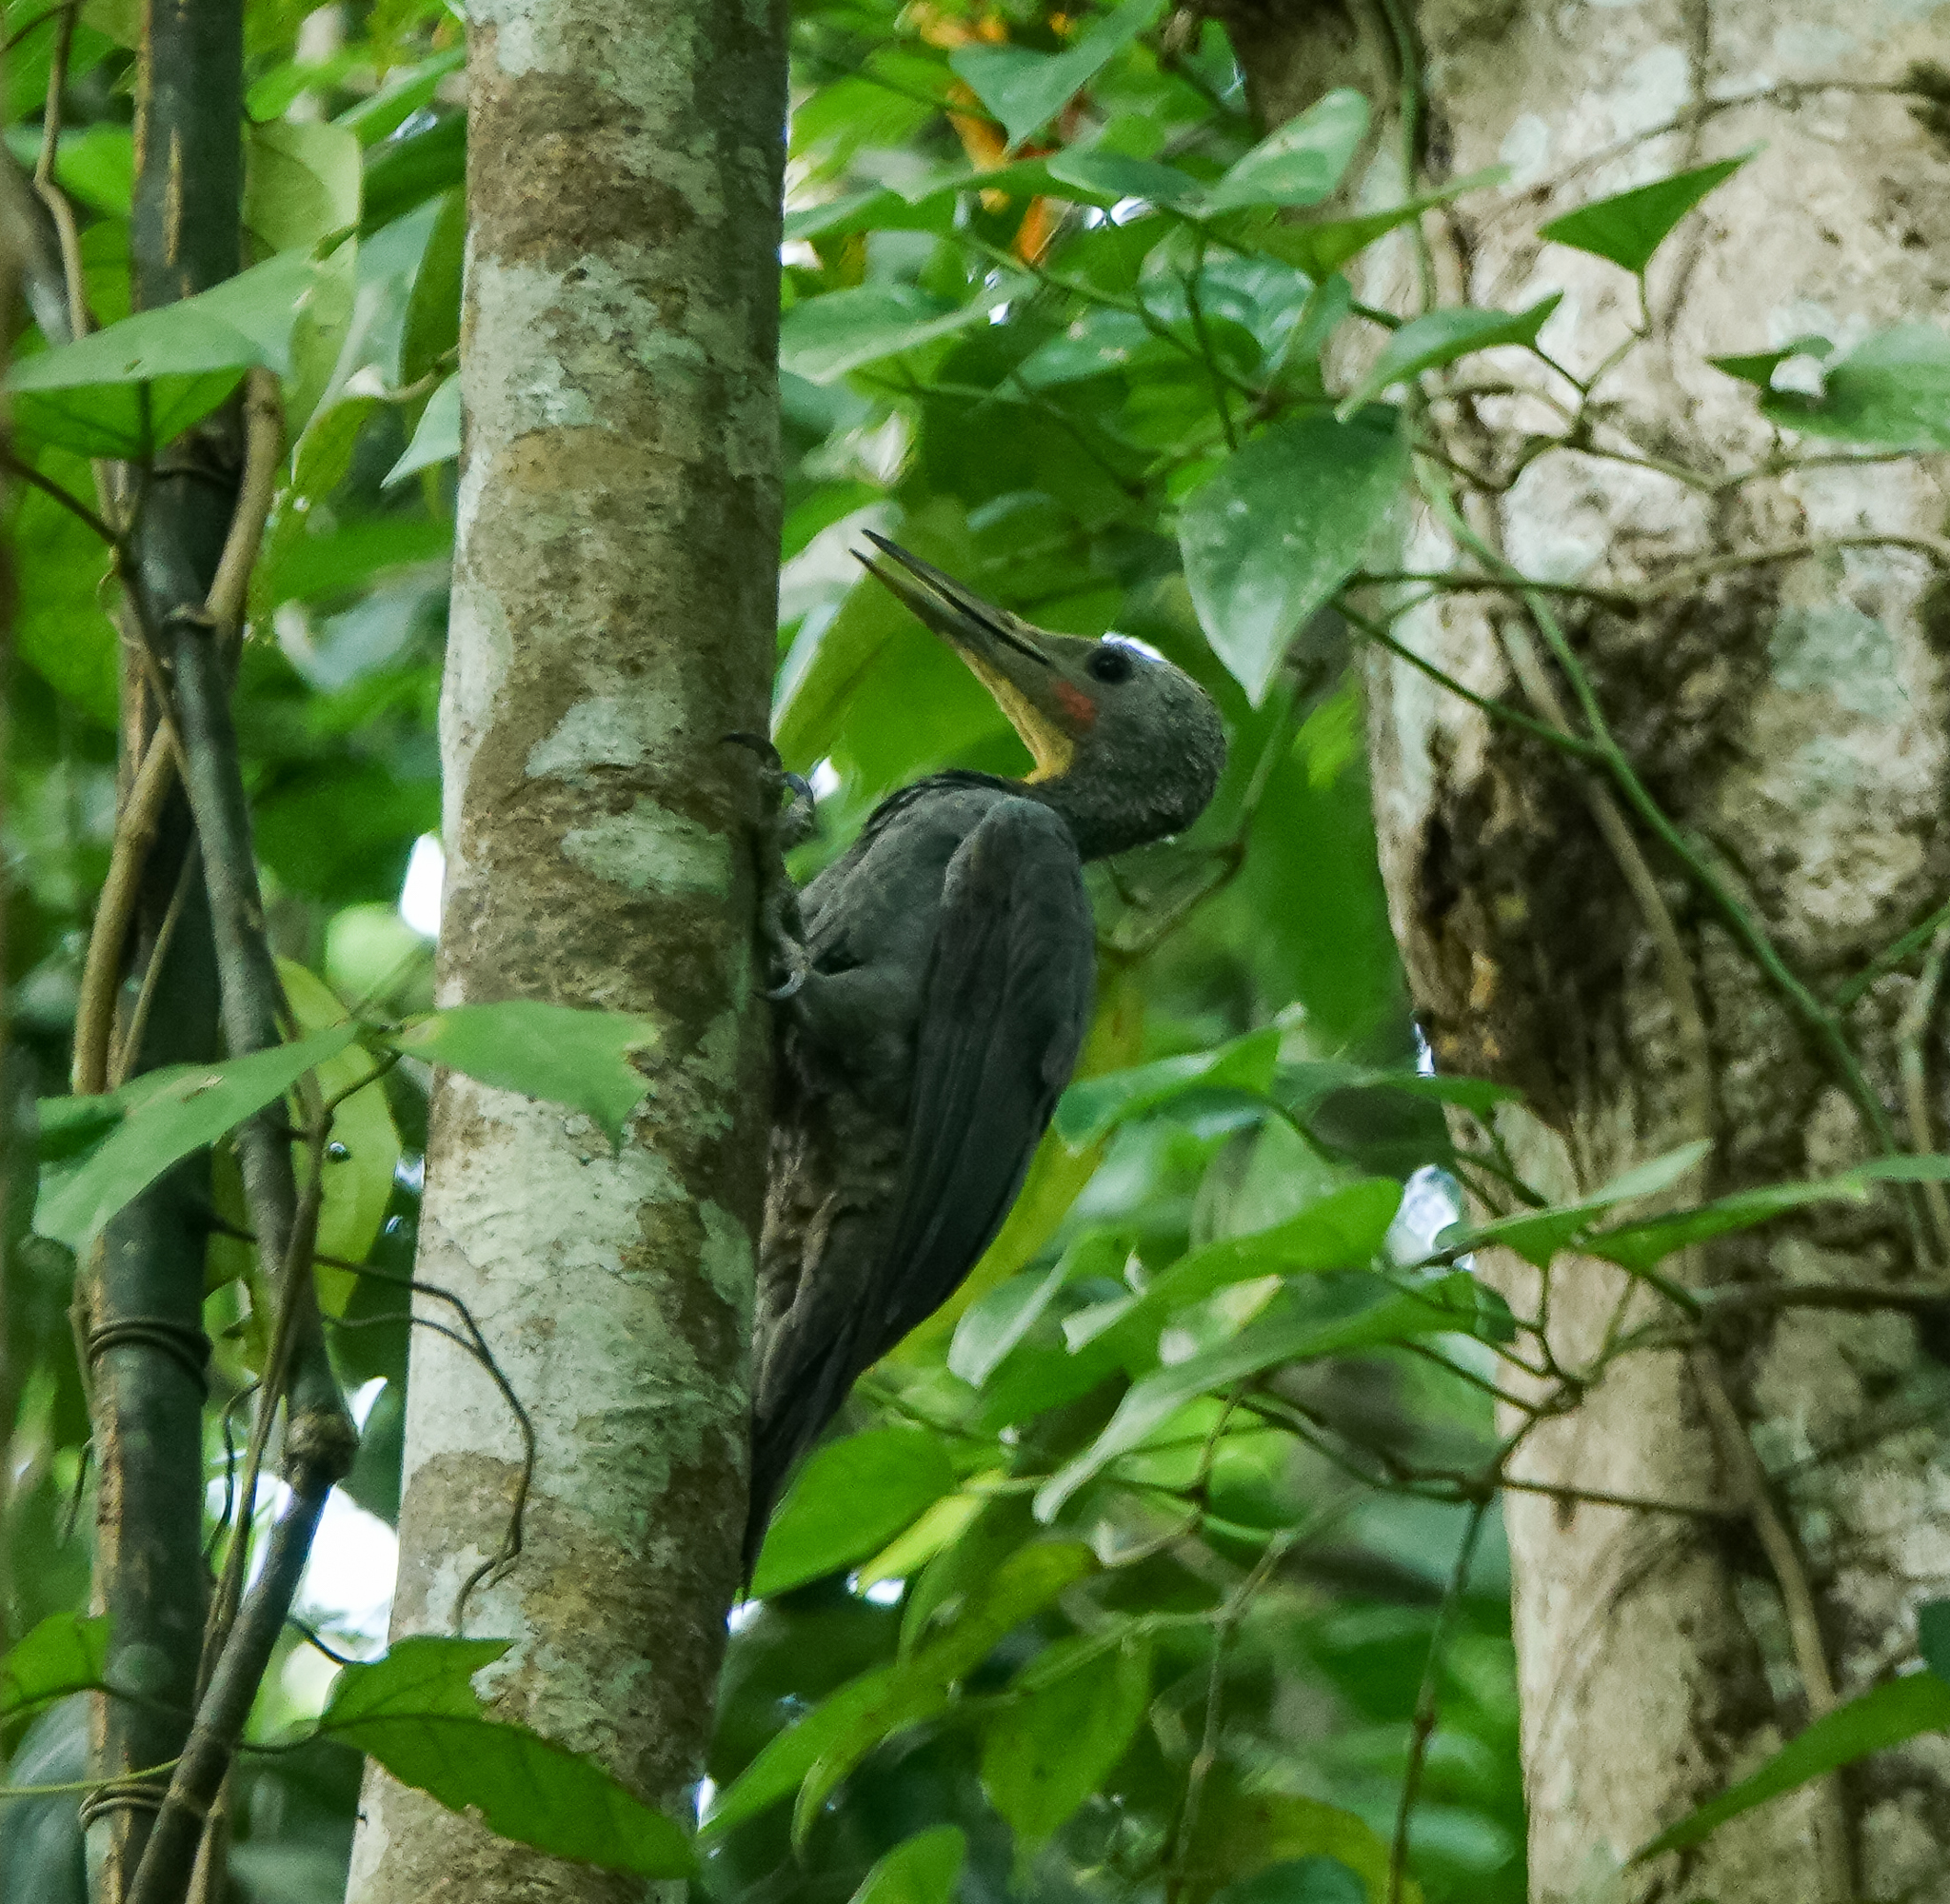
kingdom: Animalia
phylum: Chordata
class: Aves
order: Piciformes
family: Picidae
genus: Mulleripicus
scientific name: Mulleripicus pulverulentus
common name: Great slaty woodpecker
